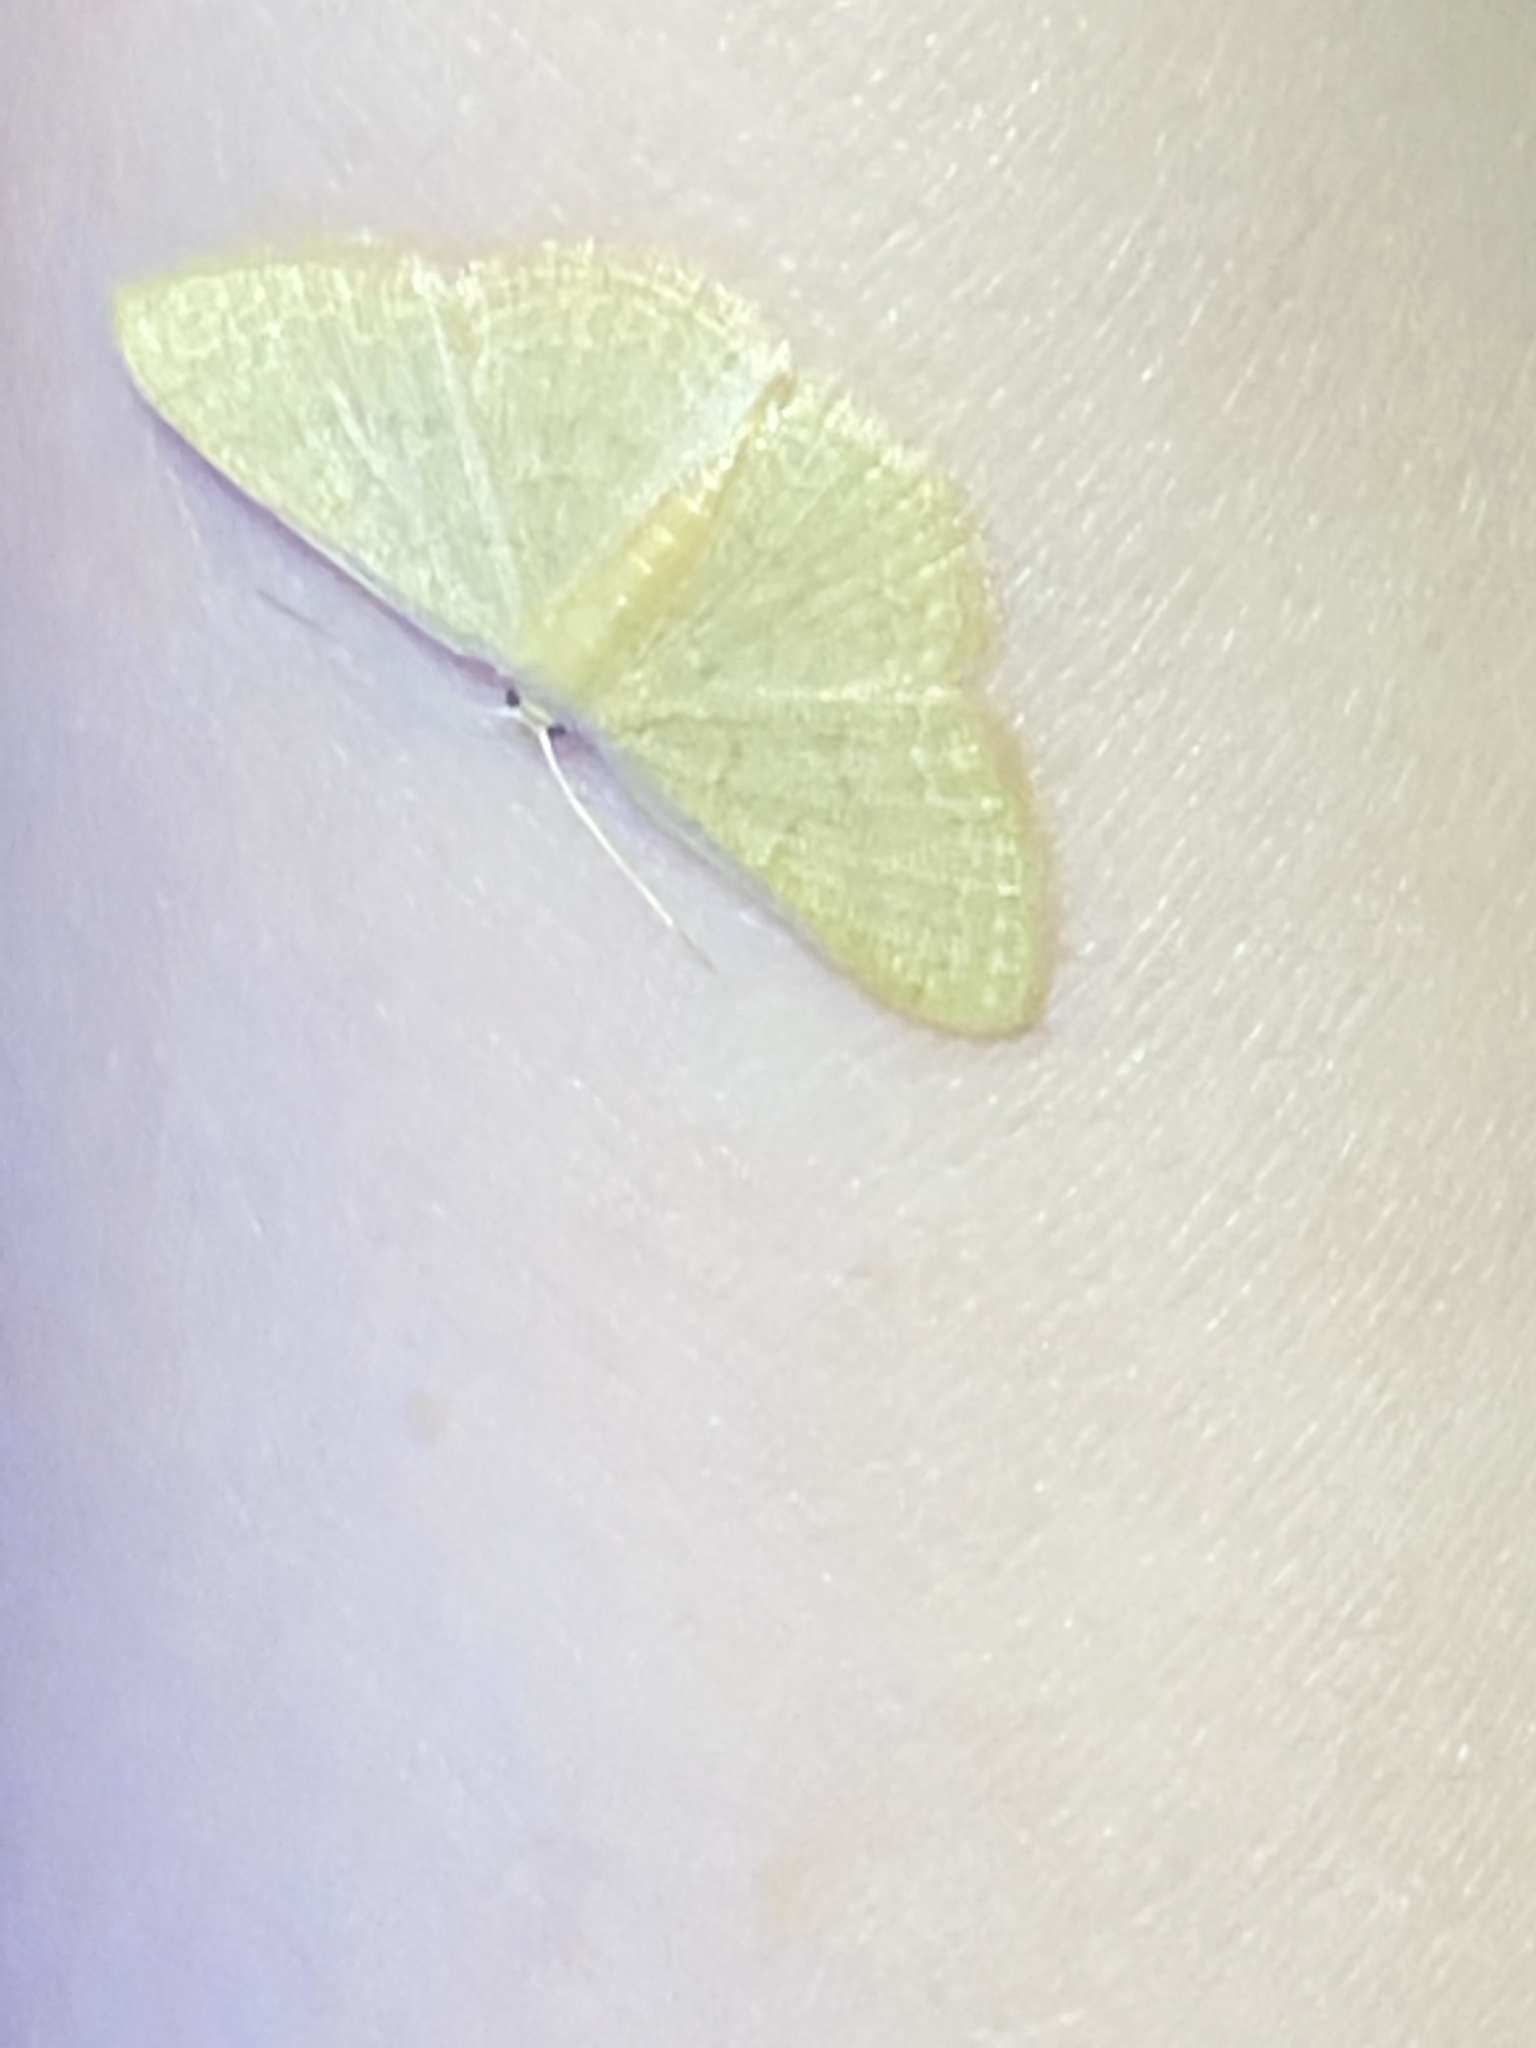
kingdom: Animalia
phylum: Arthropoda
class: Insecta
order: Lepidoptera
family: Geometridae
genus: Pleuroprucha
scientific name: Pleuroprucha insulsaria
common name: Common tan wave
